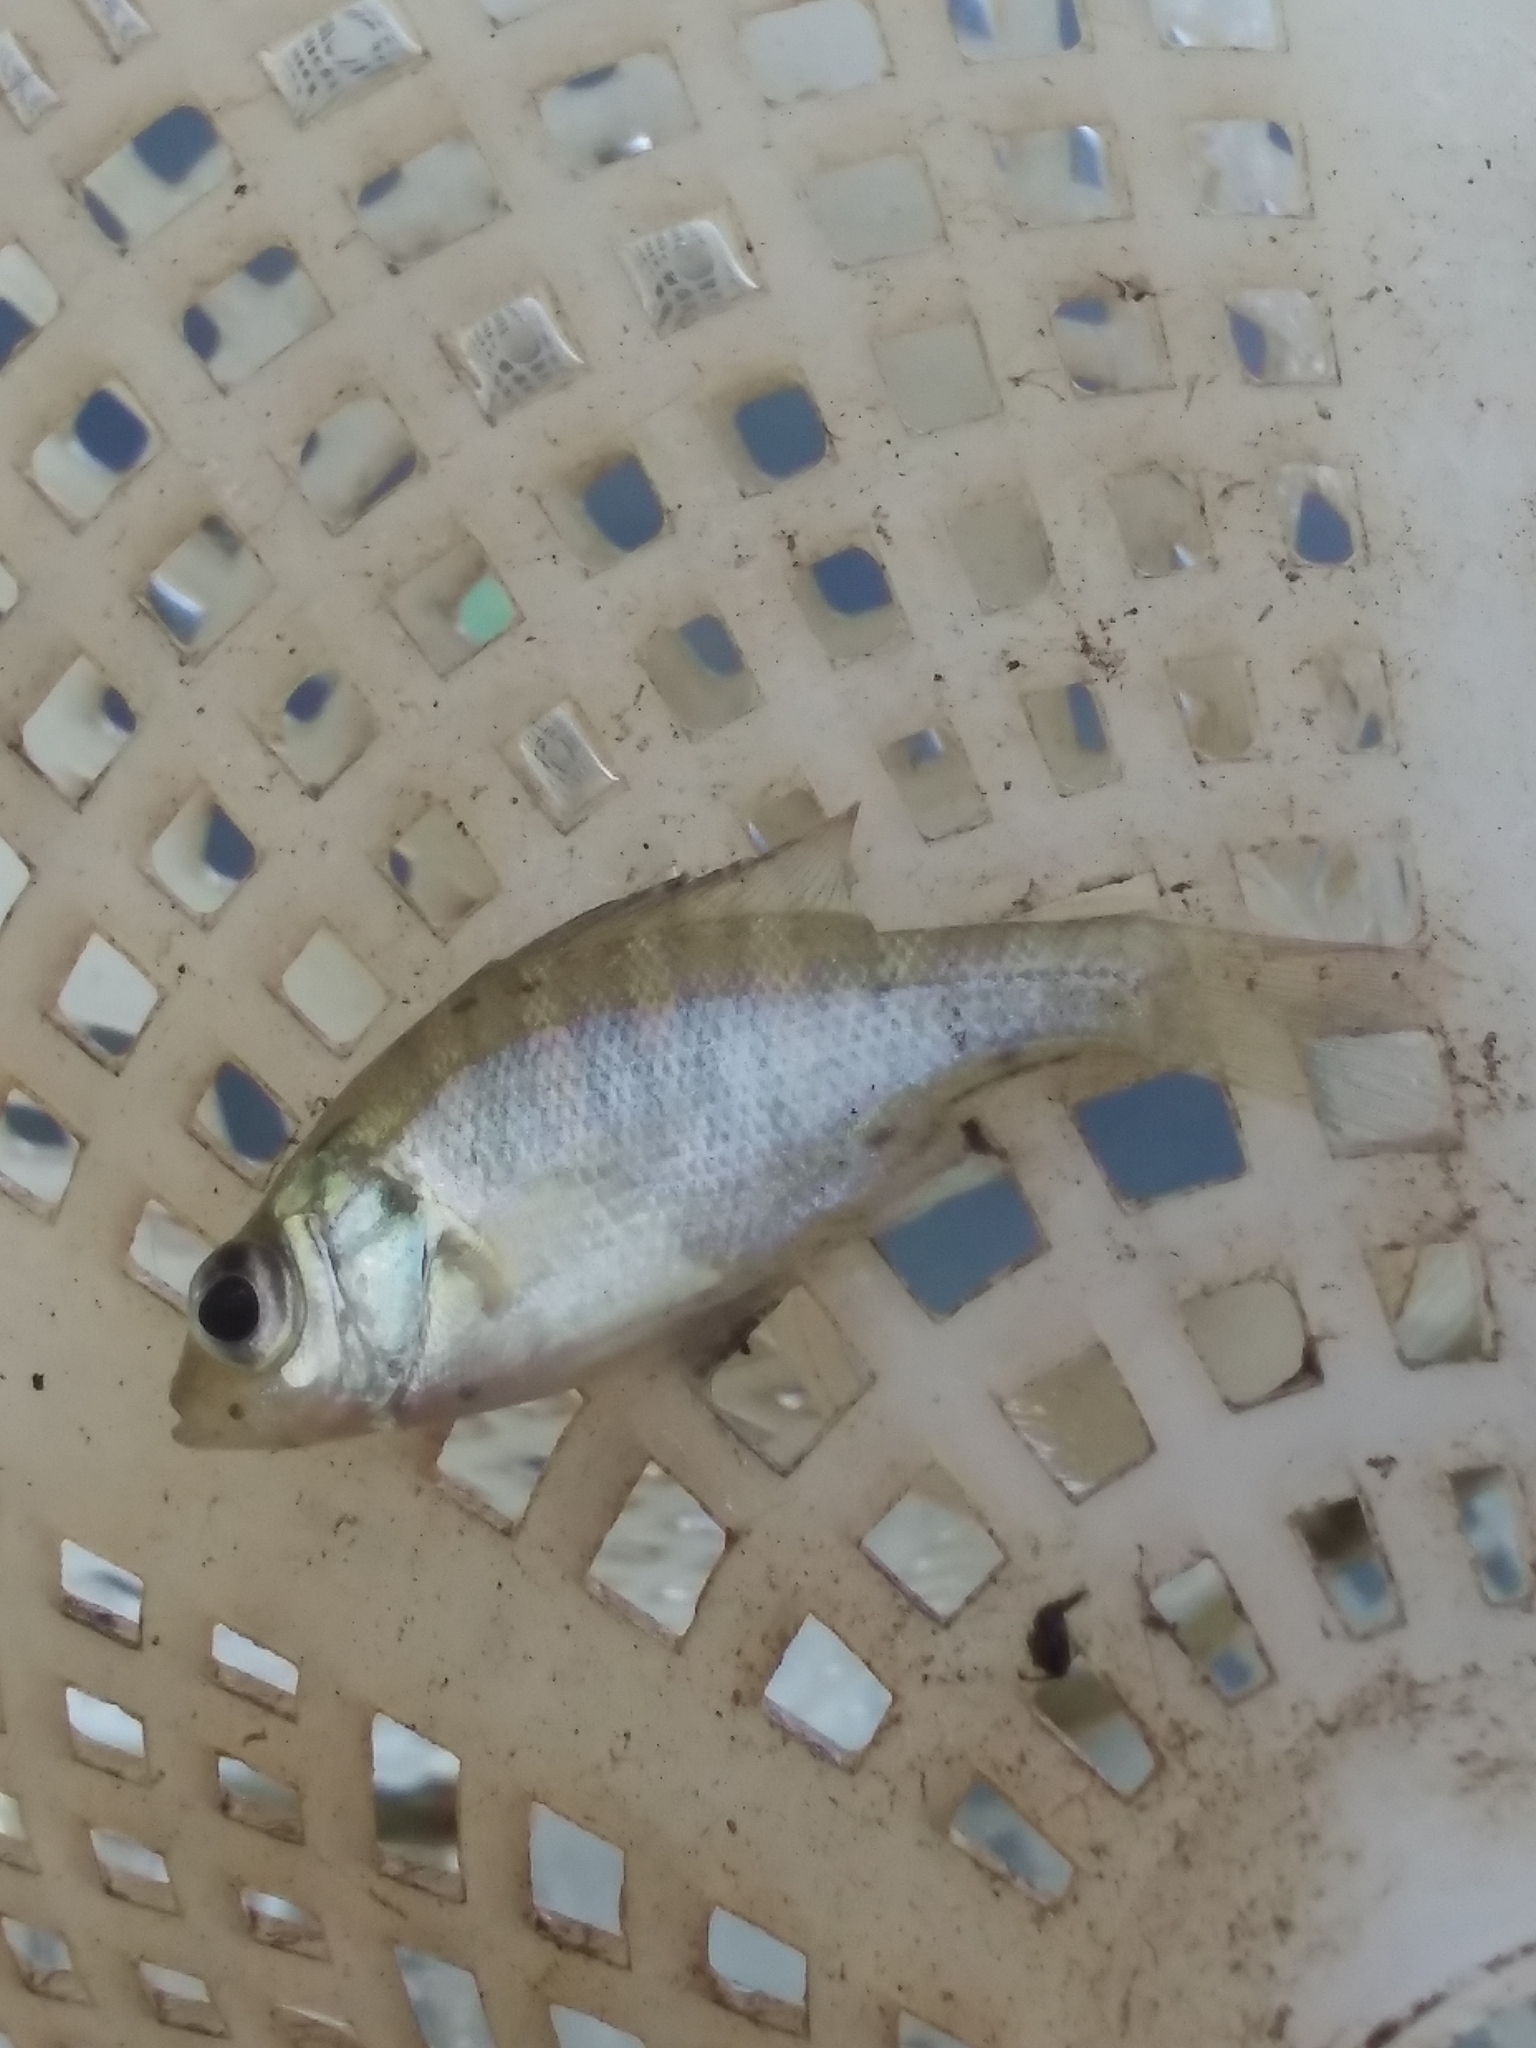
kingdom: Animalia
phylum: Chordata
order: Perciformes
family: Centrarchidae
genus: Lepomis
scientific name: Lepomis macrochirus
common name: Bluegill
